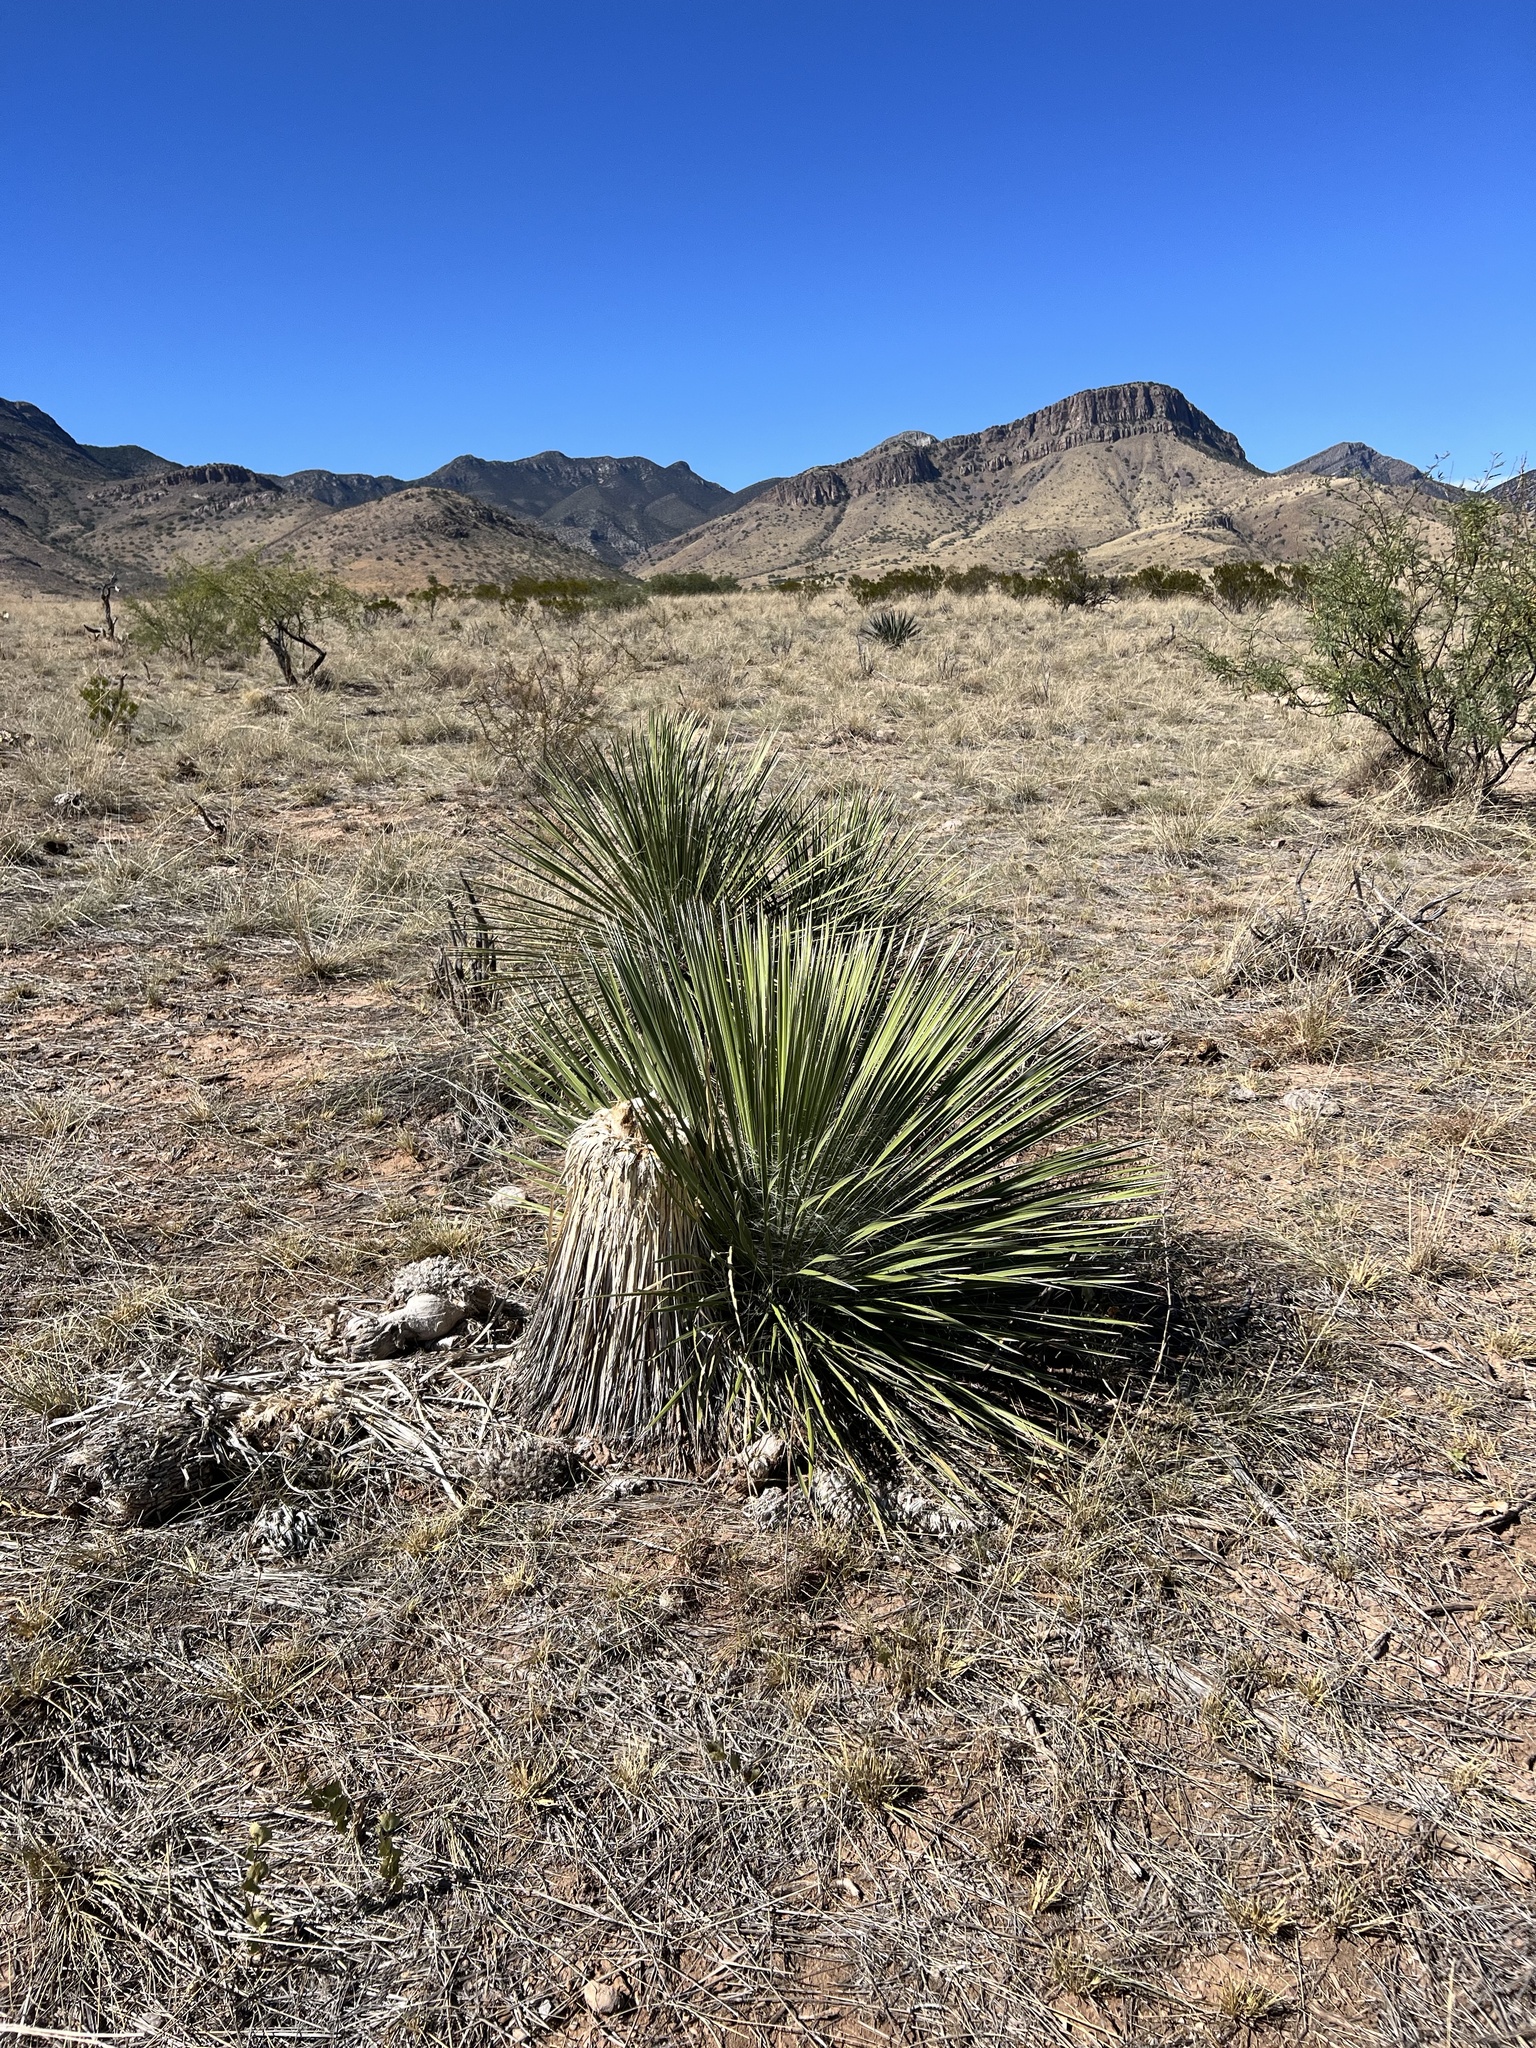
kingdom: Plantae
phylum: Tracheophyta
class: Liliopsida
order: Asparagales
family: Asparagaceae
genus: Yucca
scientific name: Yucca elata
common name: Palmella
